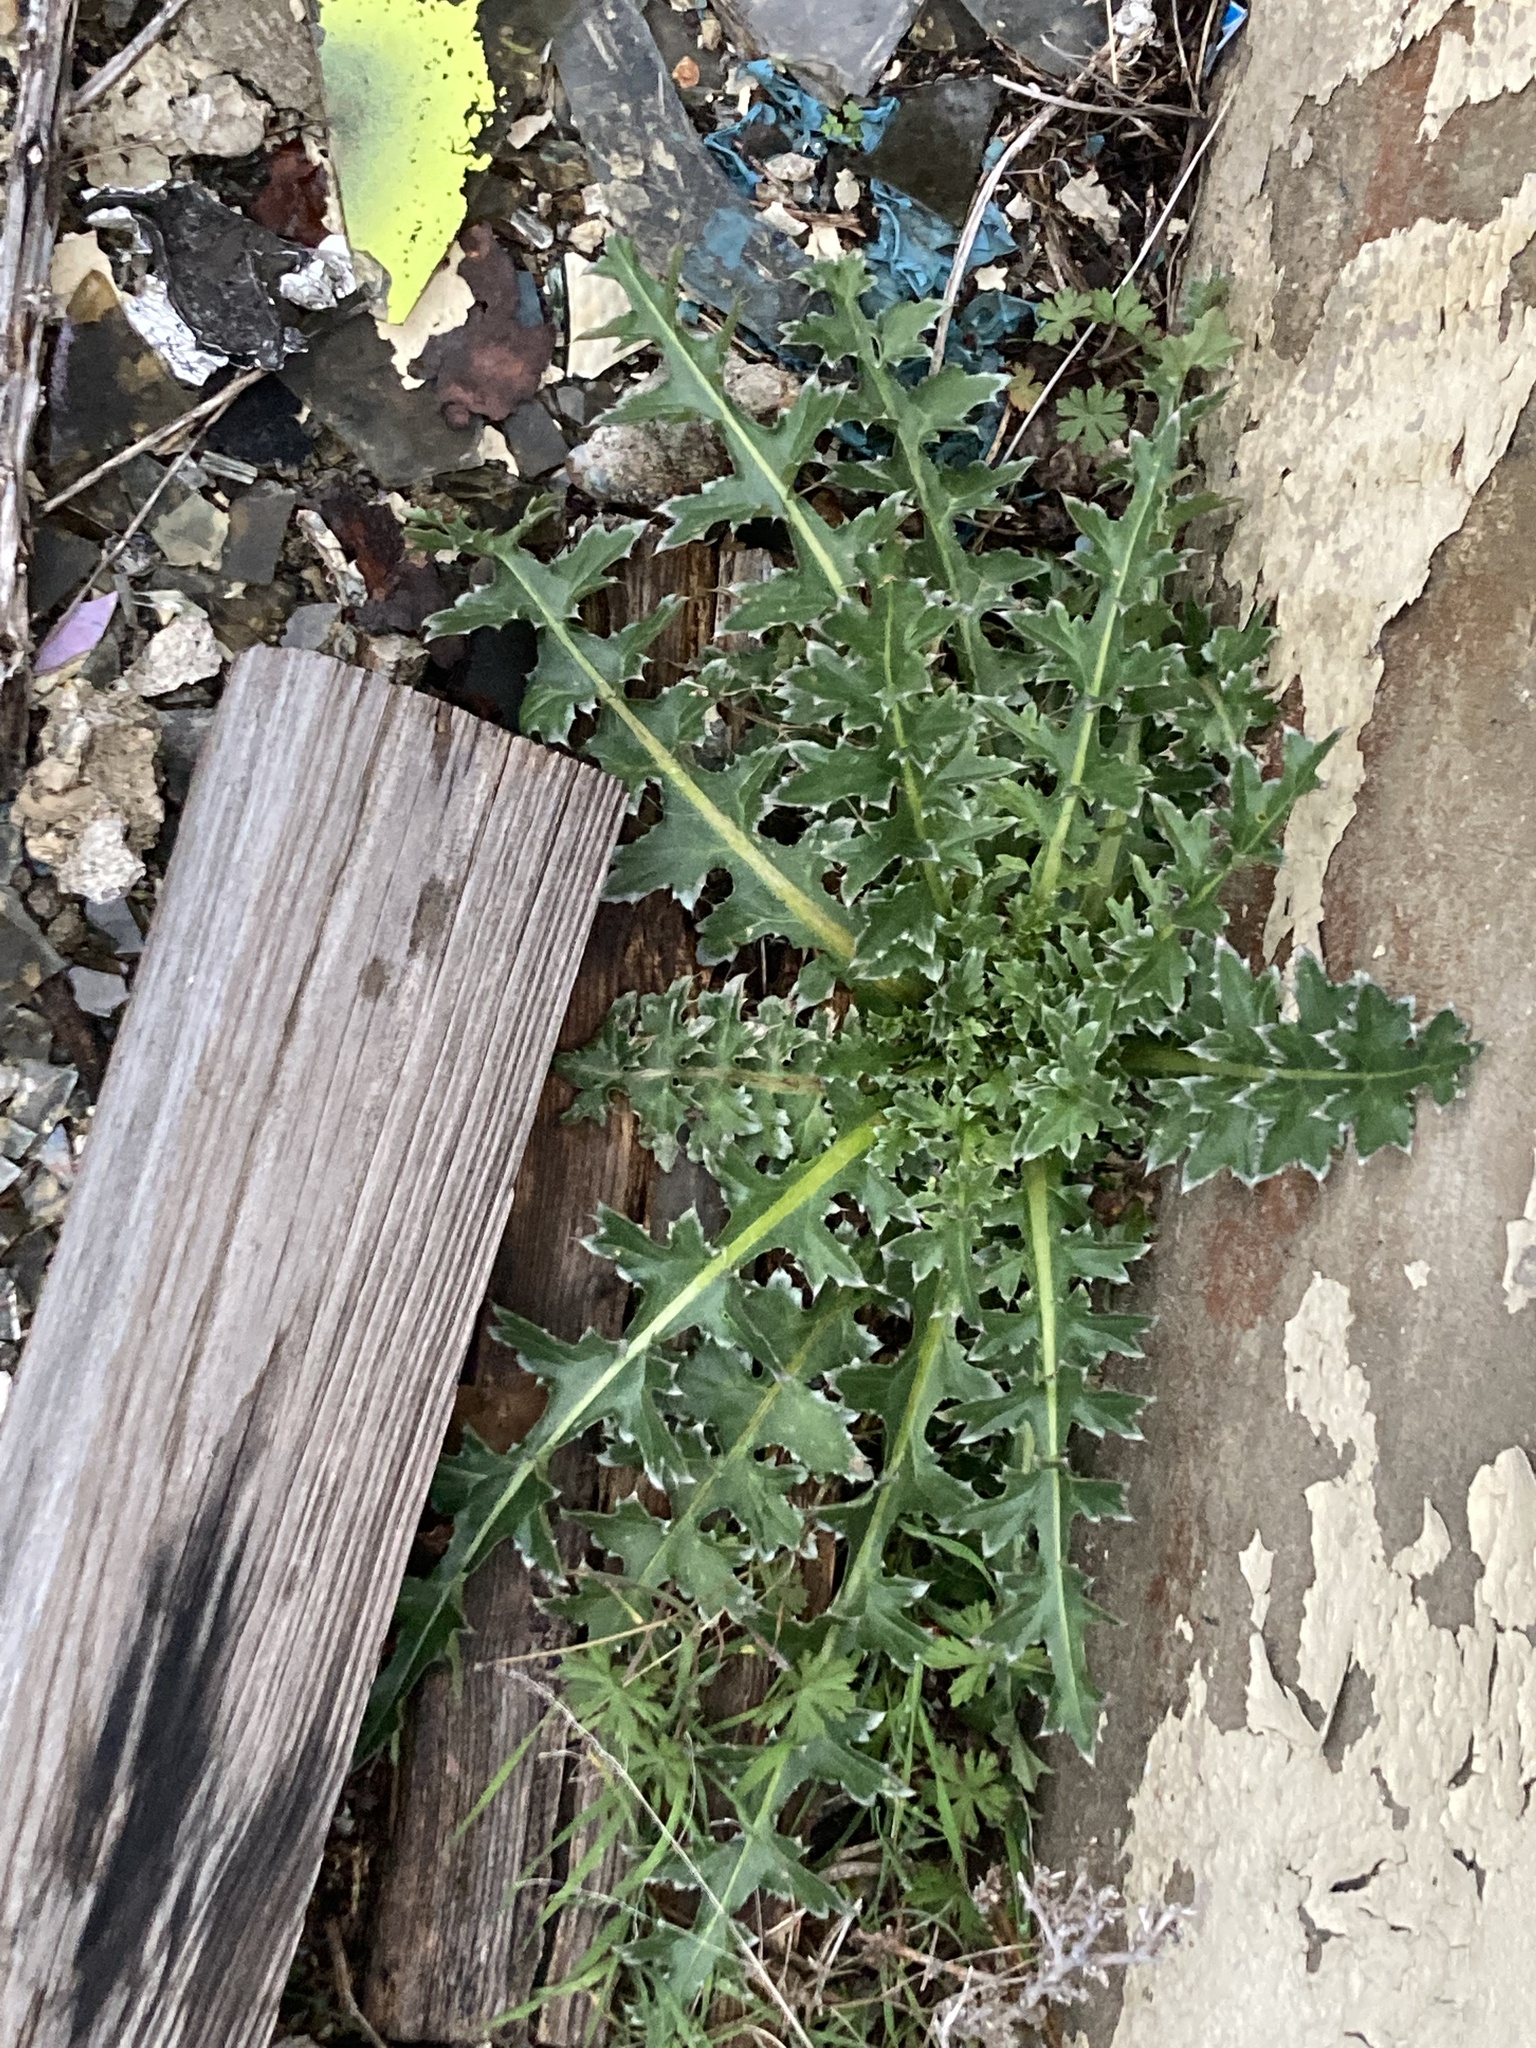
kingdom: Plantae
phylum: Tracheophyta
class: Magnoliopsida
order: Asterales
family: Asteraceae
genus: Carduus
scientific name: Carduus nutans
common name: Musk thistle
